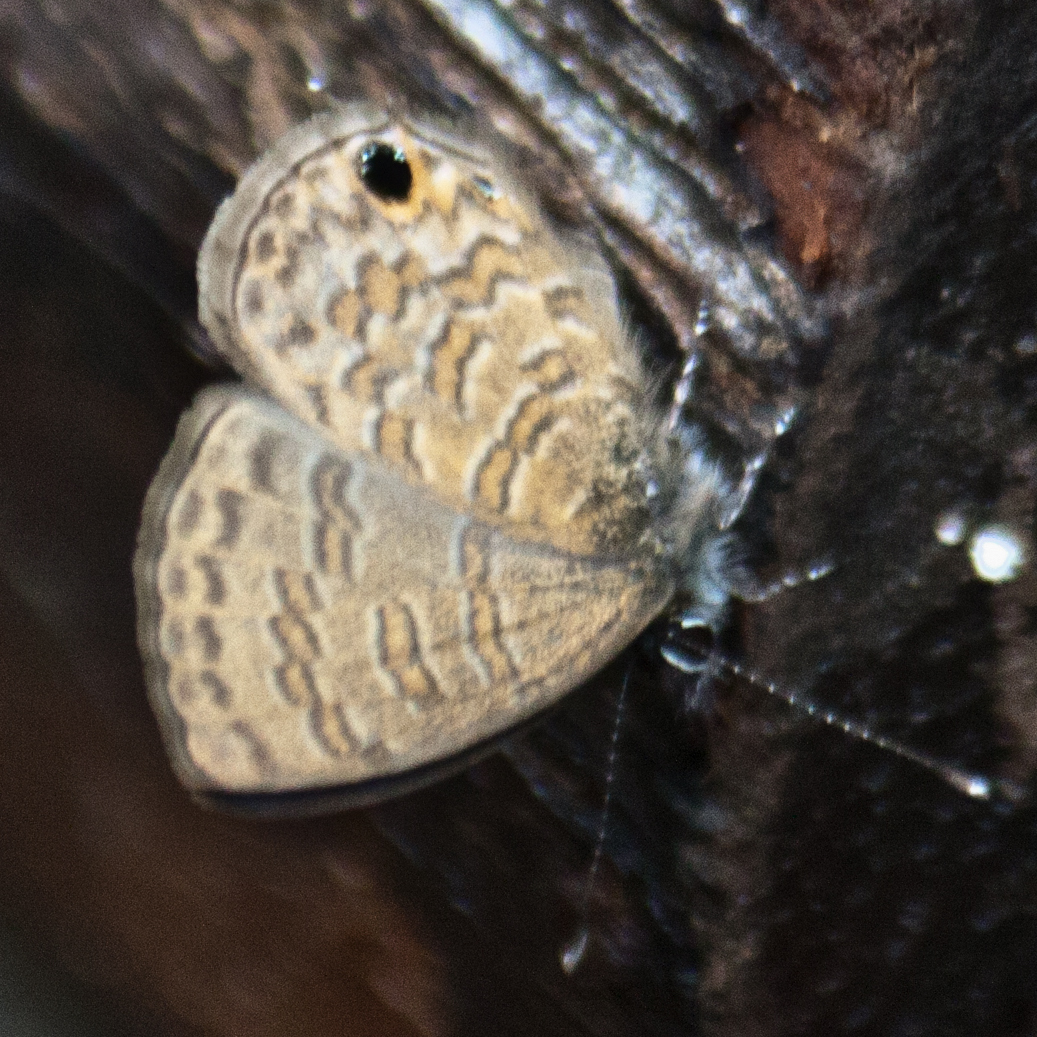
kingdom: Animalia
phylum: Arthropoda
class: Insecta
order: Lepidoptera
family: Lycaenidae
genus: Prosotas
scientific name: Prosotas nora
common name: Common line blue
